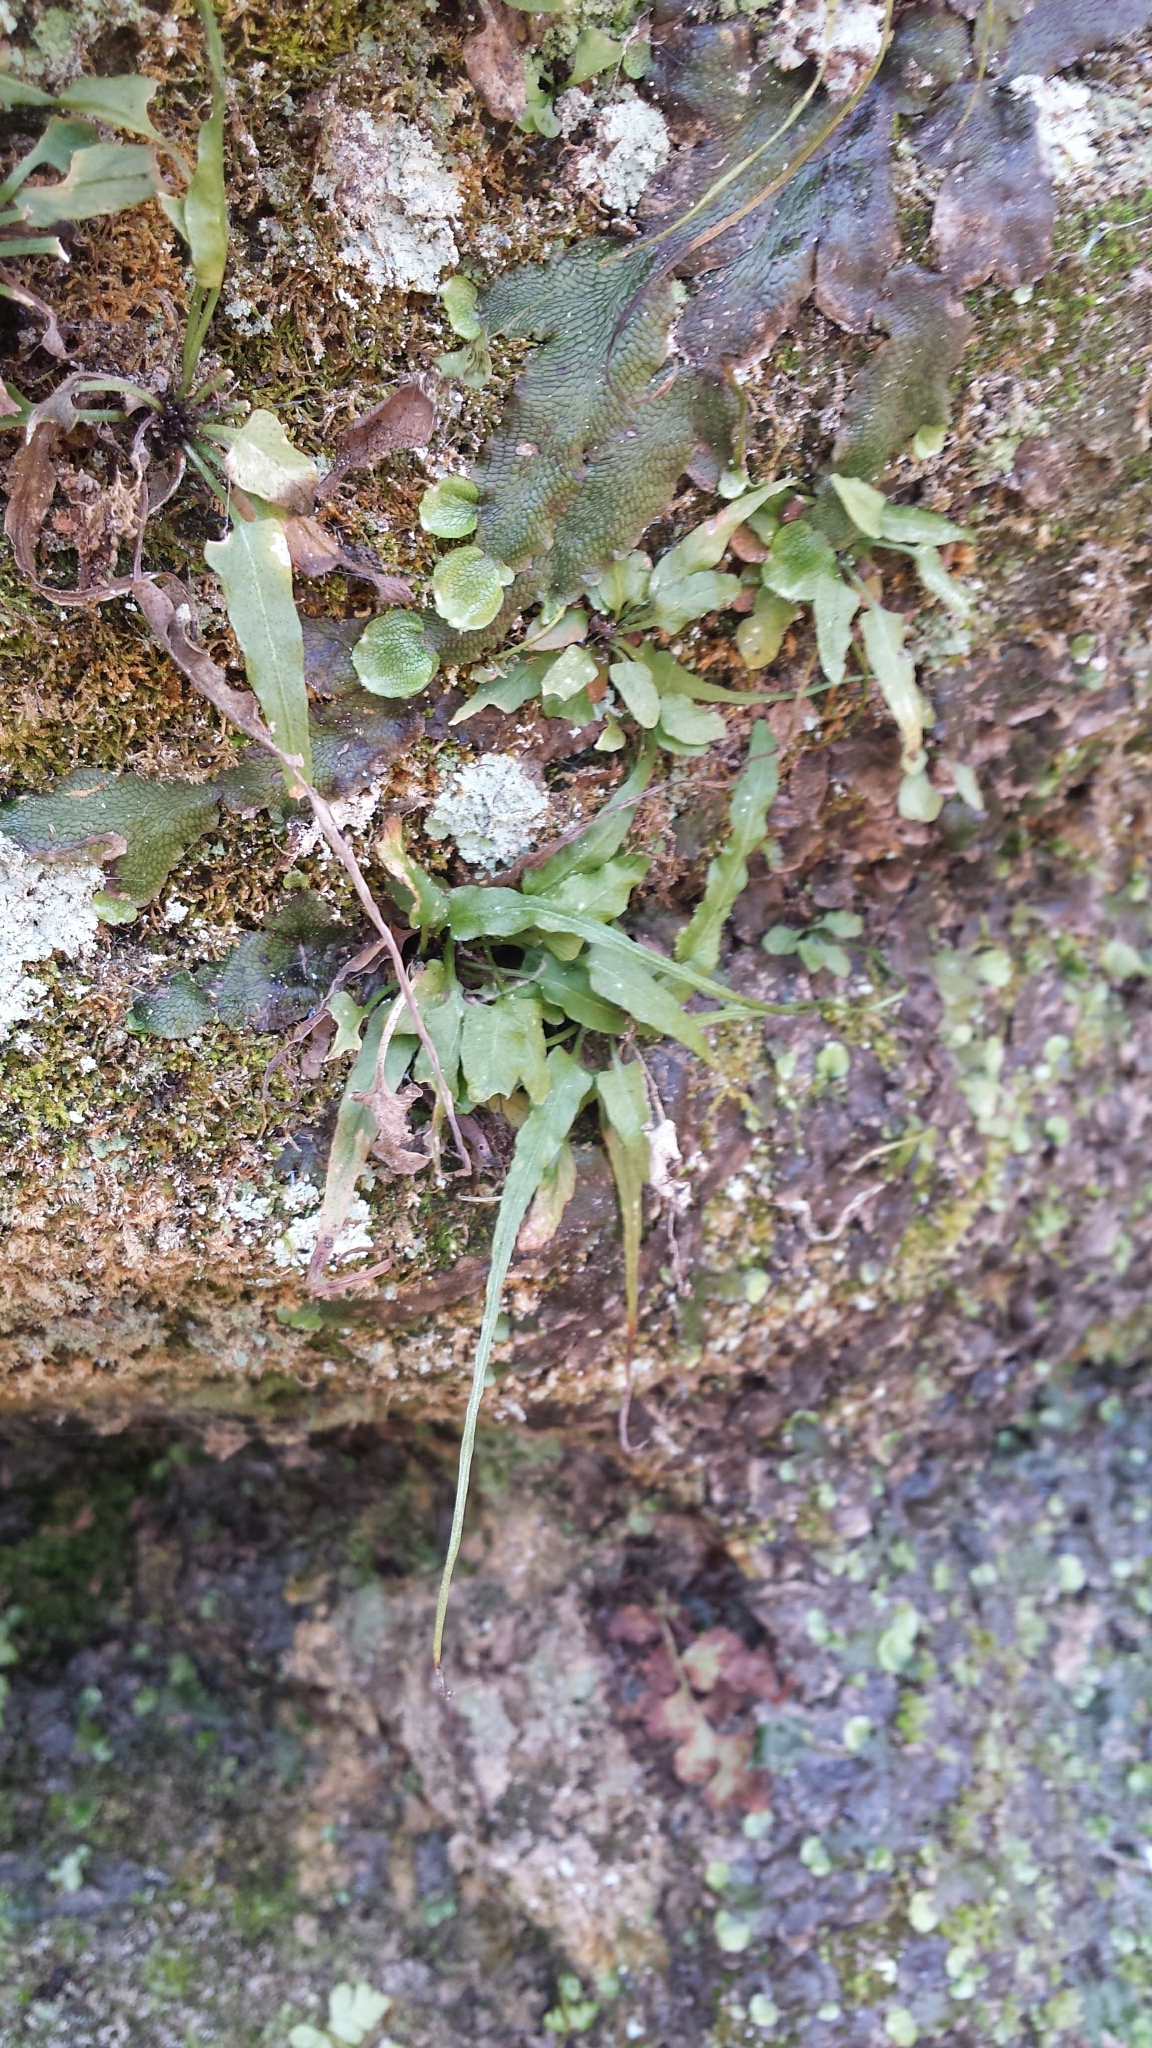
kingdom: Plantae
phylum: Tracheophyta
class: Polypodiopsida
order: Polypodiales
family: Aspleniaceae
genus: Asplenium
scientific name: Asplenium rhizophyllum
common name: Walking fern
